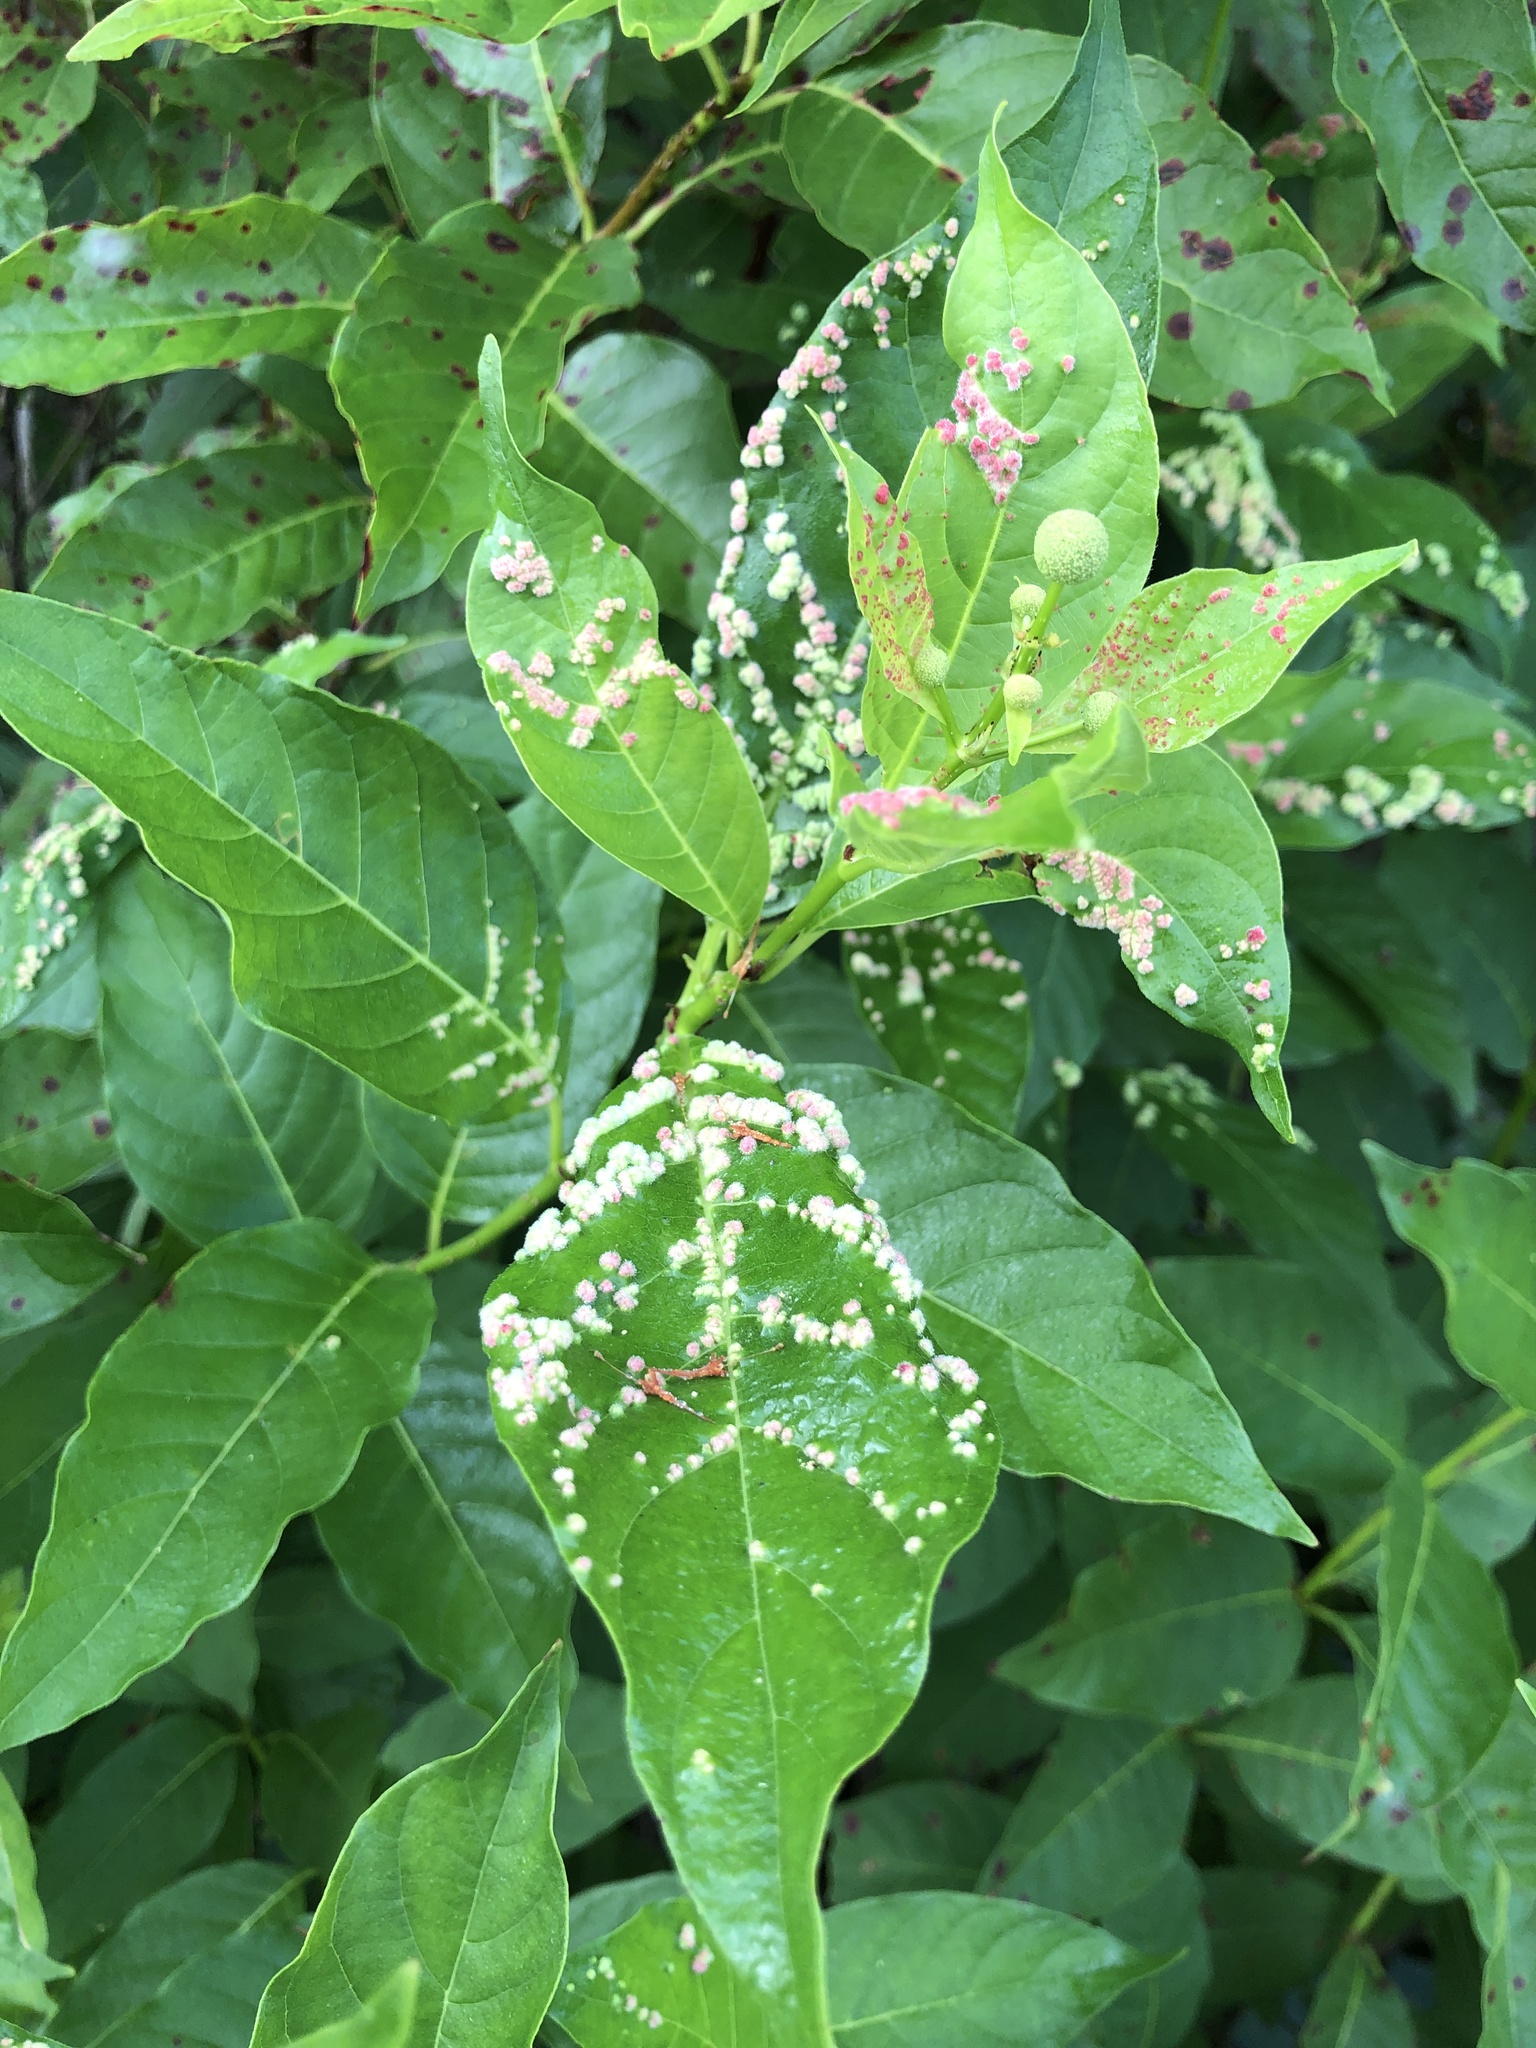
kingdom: Animalia
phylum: Arthropoda
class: Arachnida
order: Trombidiformes
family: Eriophyidae
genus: Aceria
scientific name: Aceria
